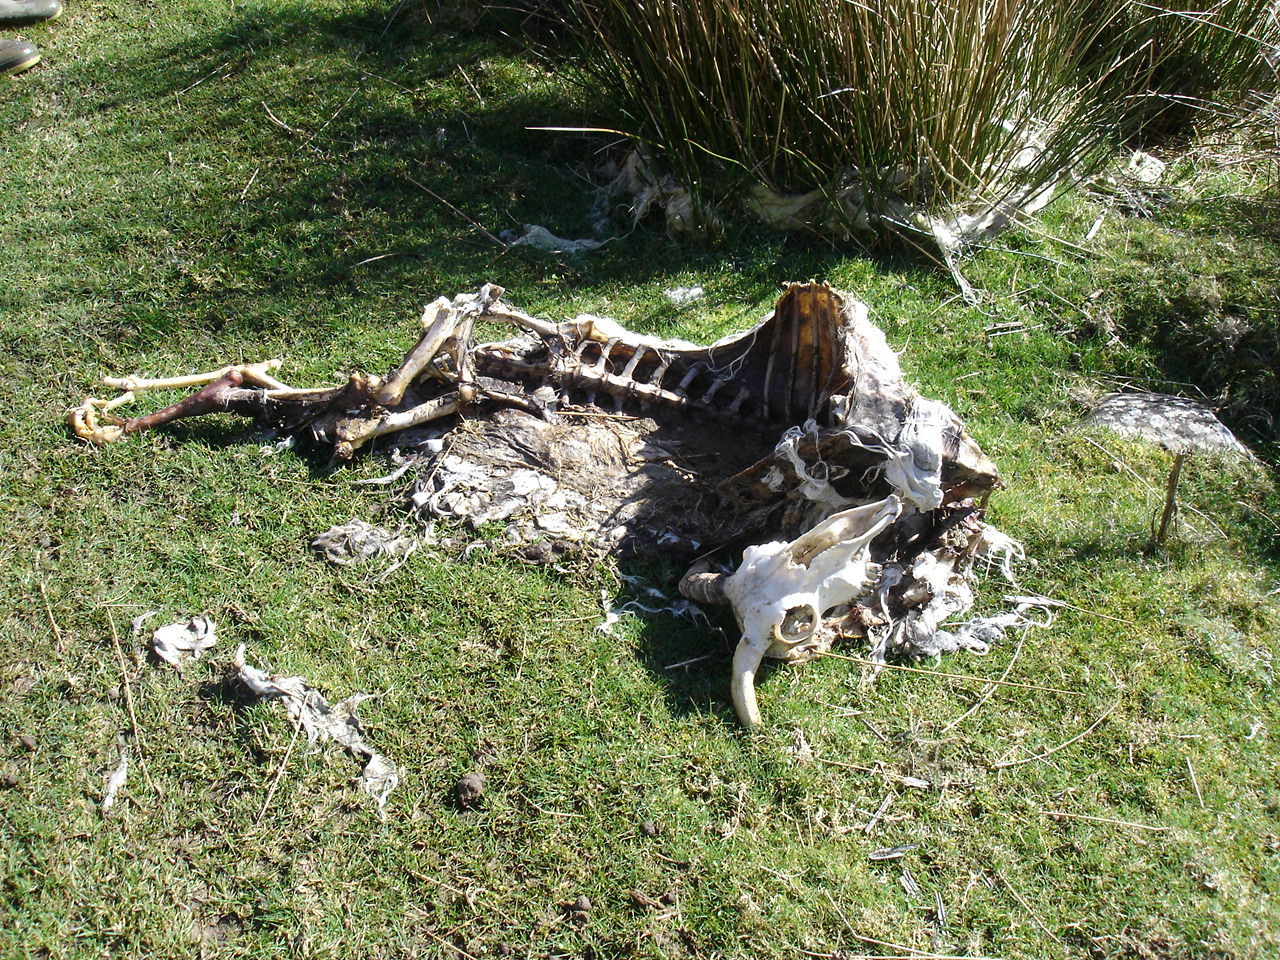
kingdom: Animalia
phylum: Chordata
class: Mammalia
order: Artiodactyla
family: Bovidae
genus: Ovis
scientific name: Ovis aries
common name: Domestic sheep
